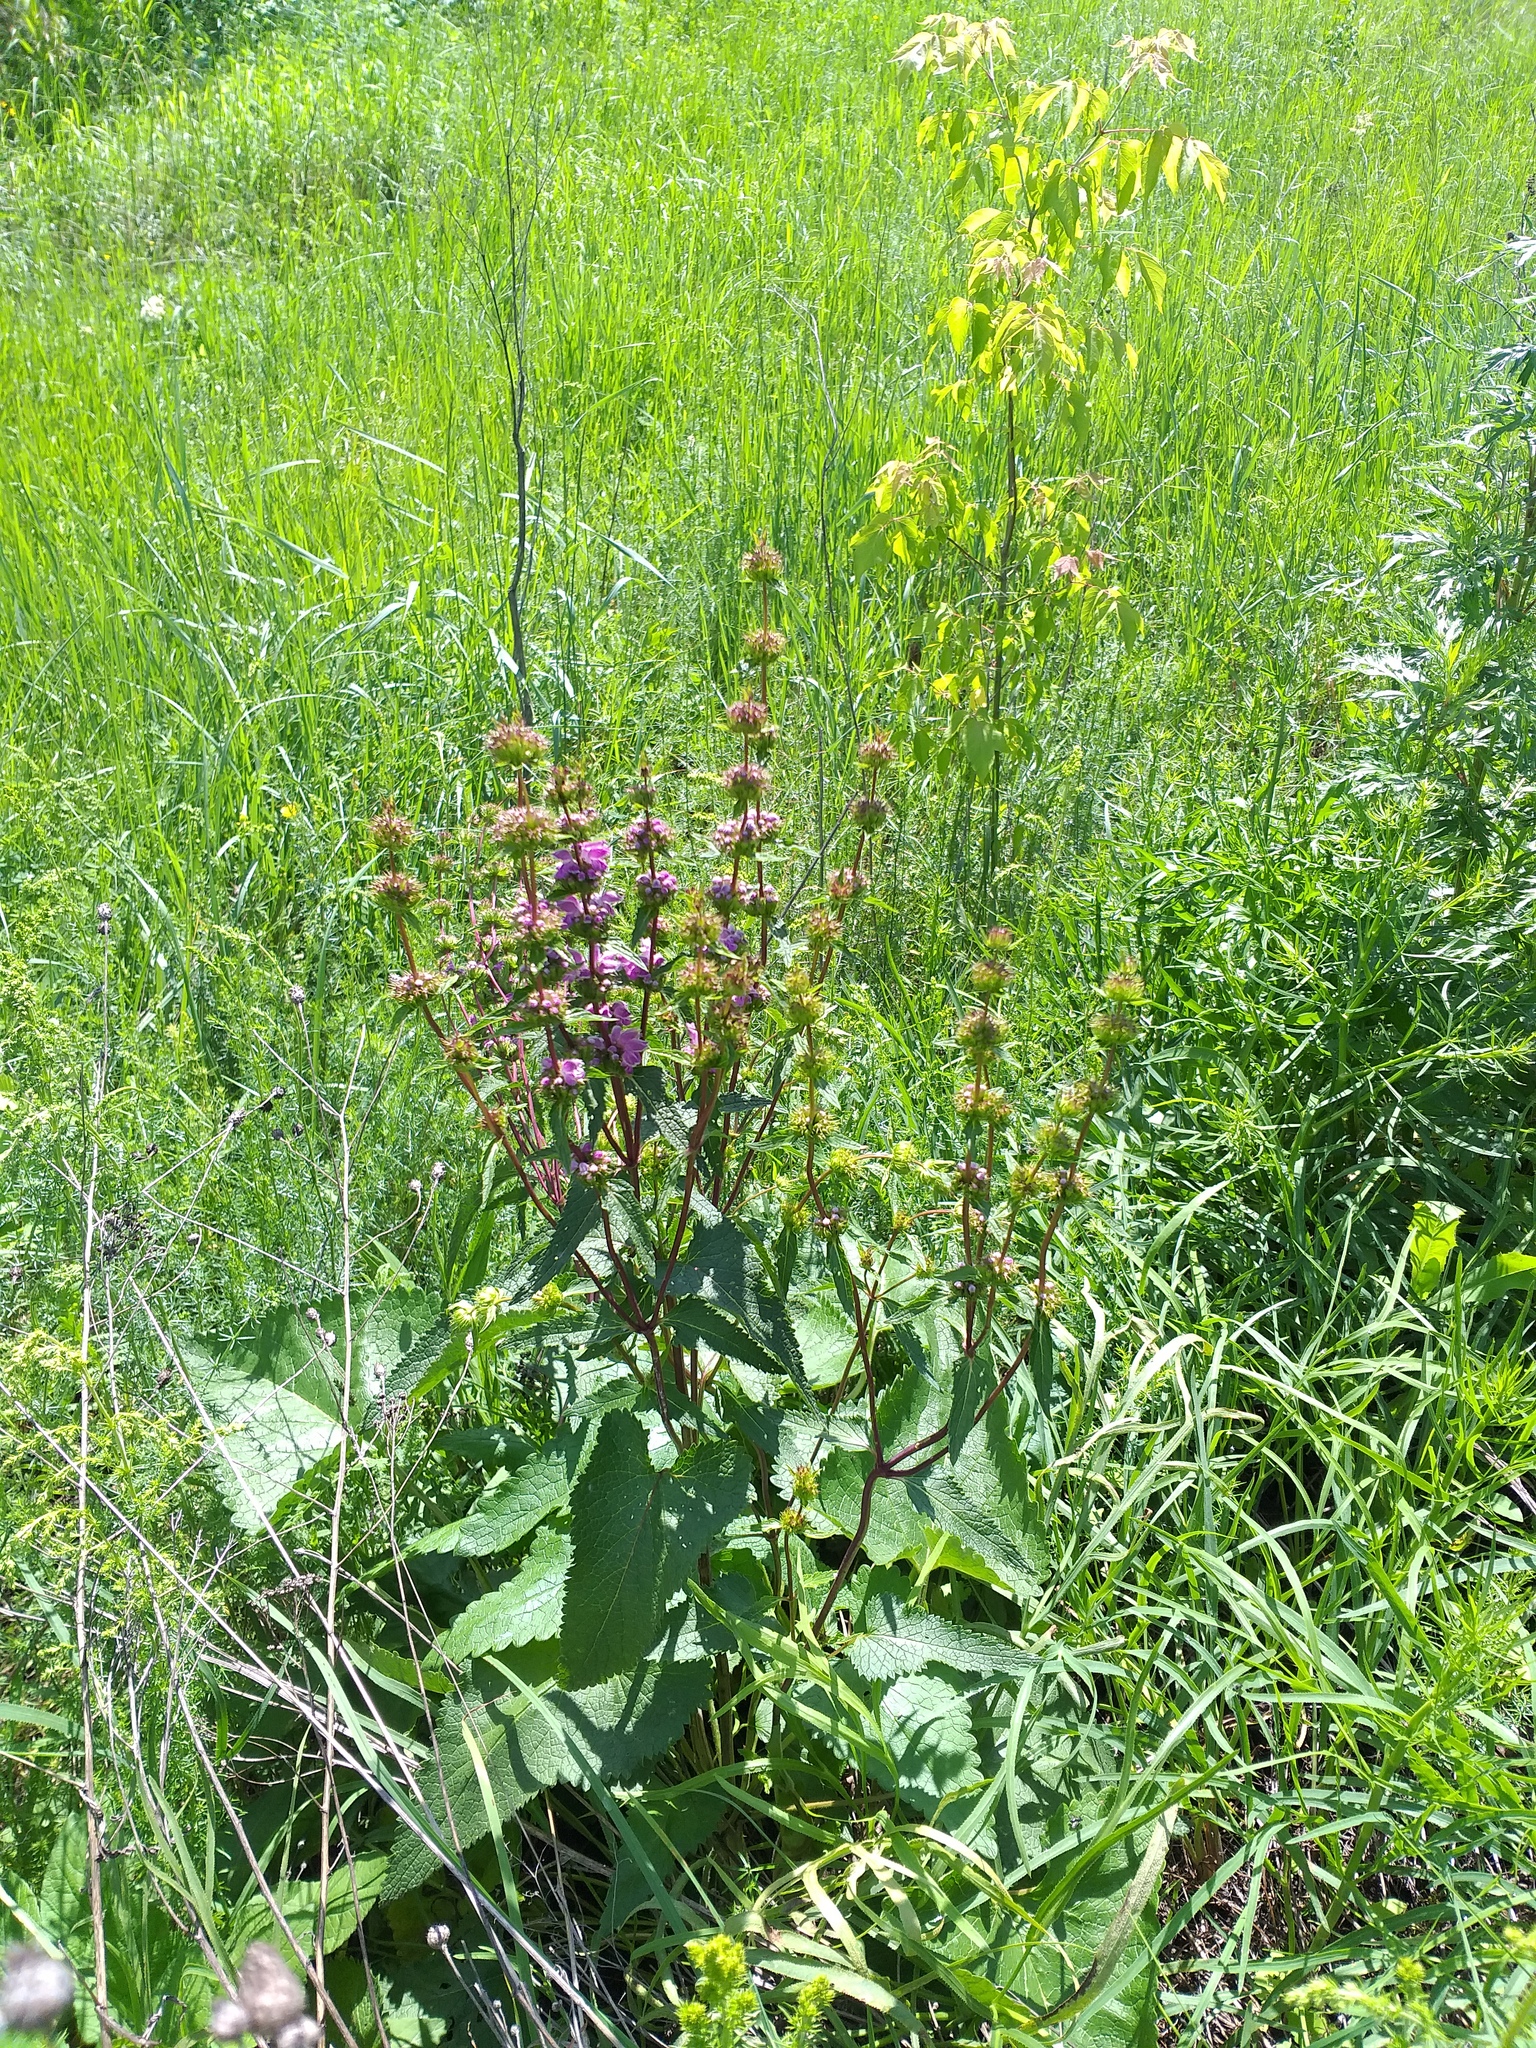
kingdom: Plantae
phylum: Tracheophyta
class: Magnoliopsida
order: Lamiales
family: Lamiaceae
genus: Phlomoides
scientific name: Phlomoides tuberosa
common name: Tuberous jerusalem sage
